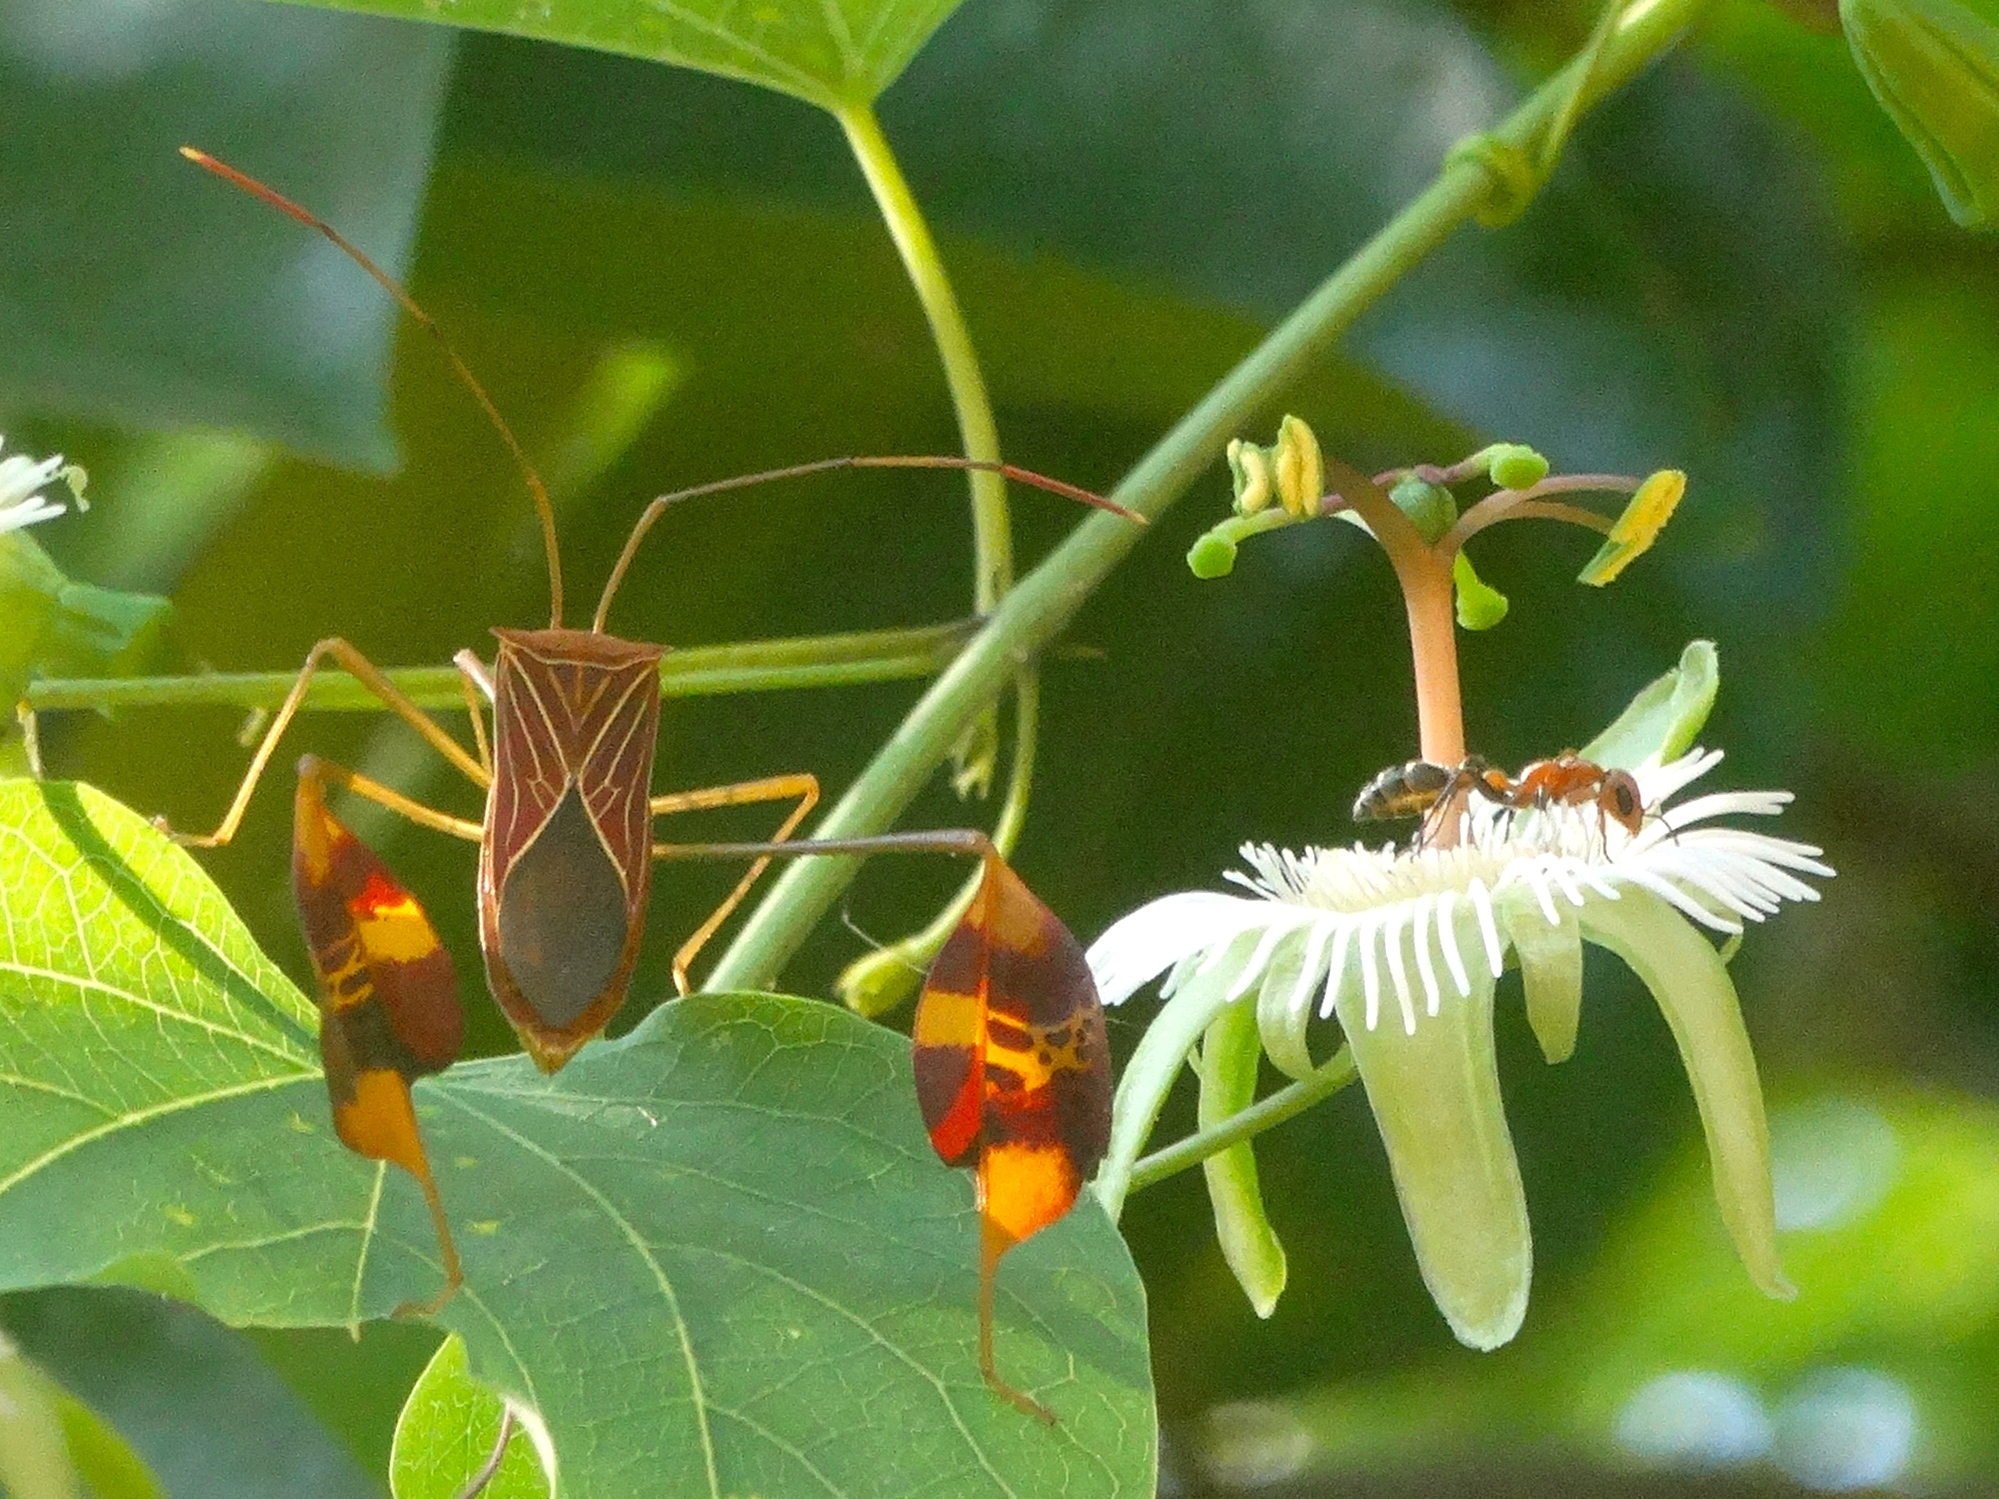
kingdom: Animalia
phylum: Arthropoda
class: Insecta
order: Hemiptera
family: Coreidae
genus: Bitta
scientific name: Bitta
